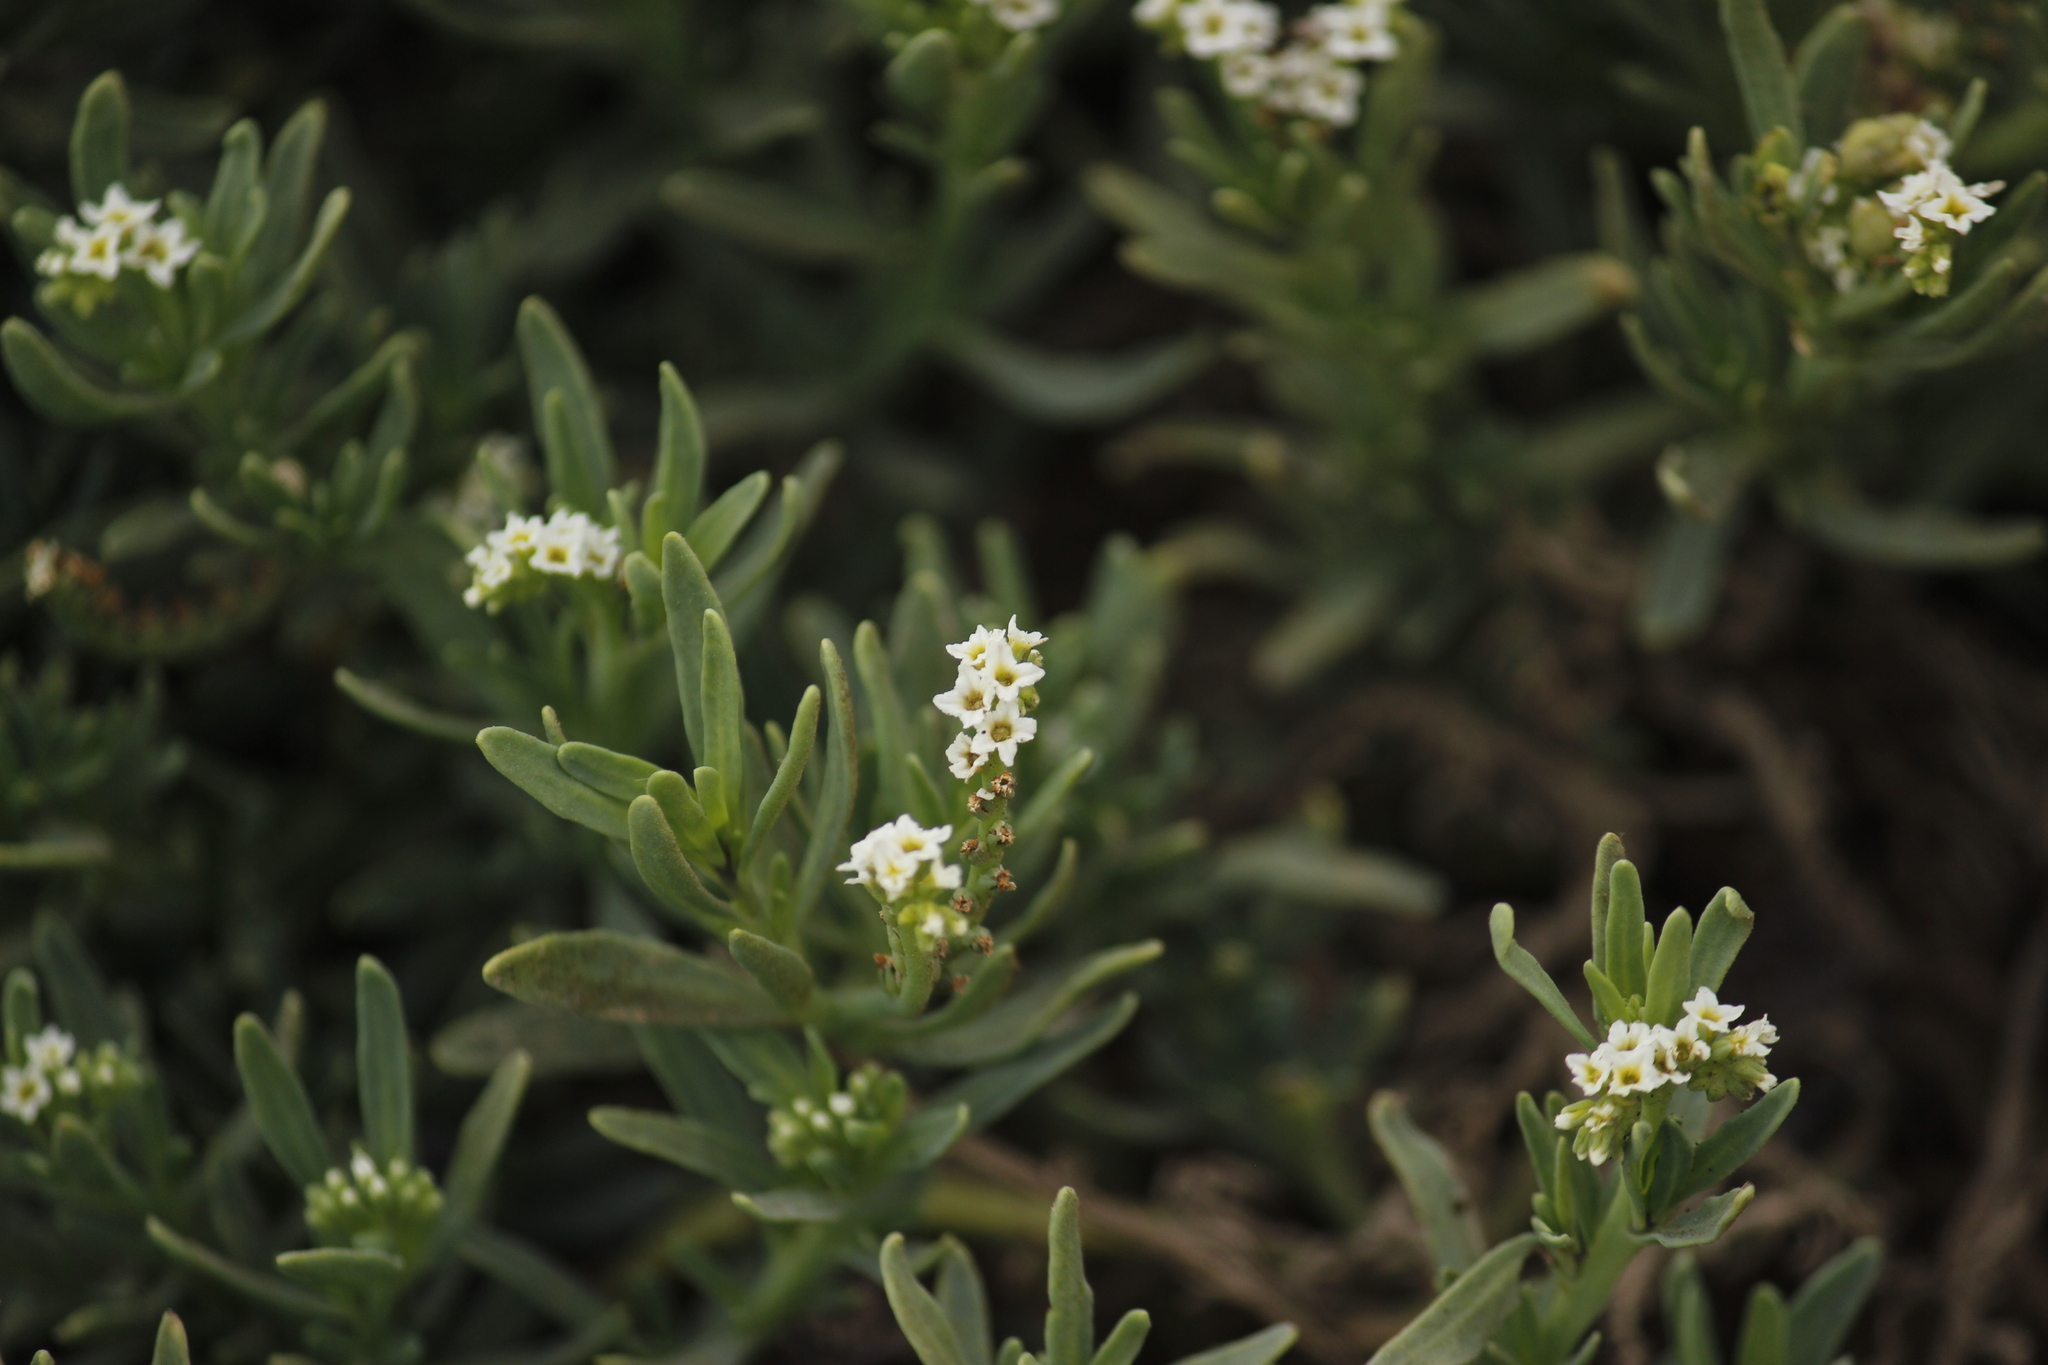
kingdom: Plantae
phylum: Tracheophyta
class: Magnoliopsida
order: Boraginales
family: Heliotropiaceae
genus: Heliotropium
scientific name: Heliotropium curassavicum
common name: Seaside heliotrope
